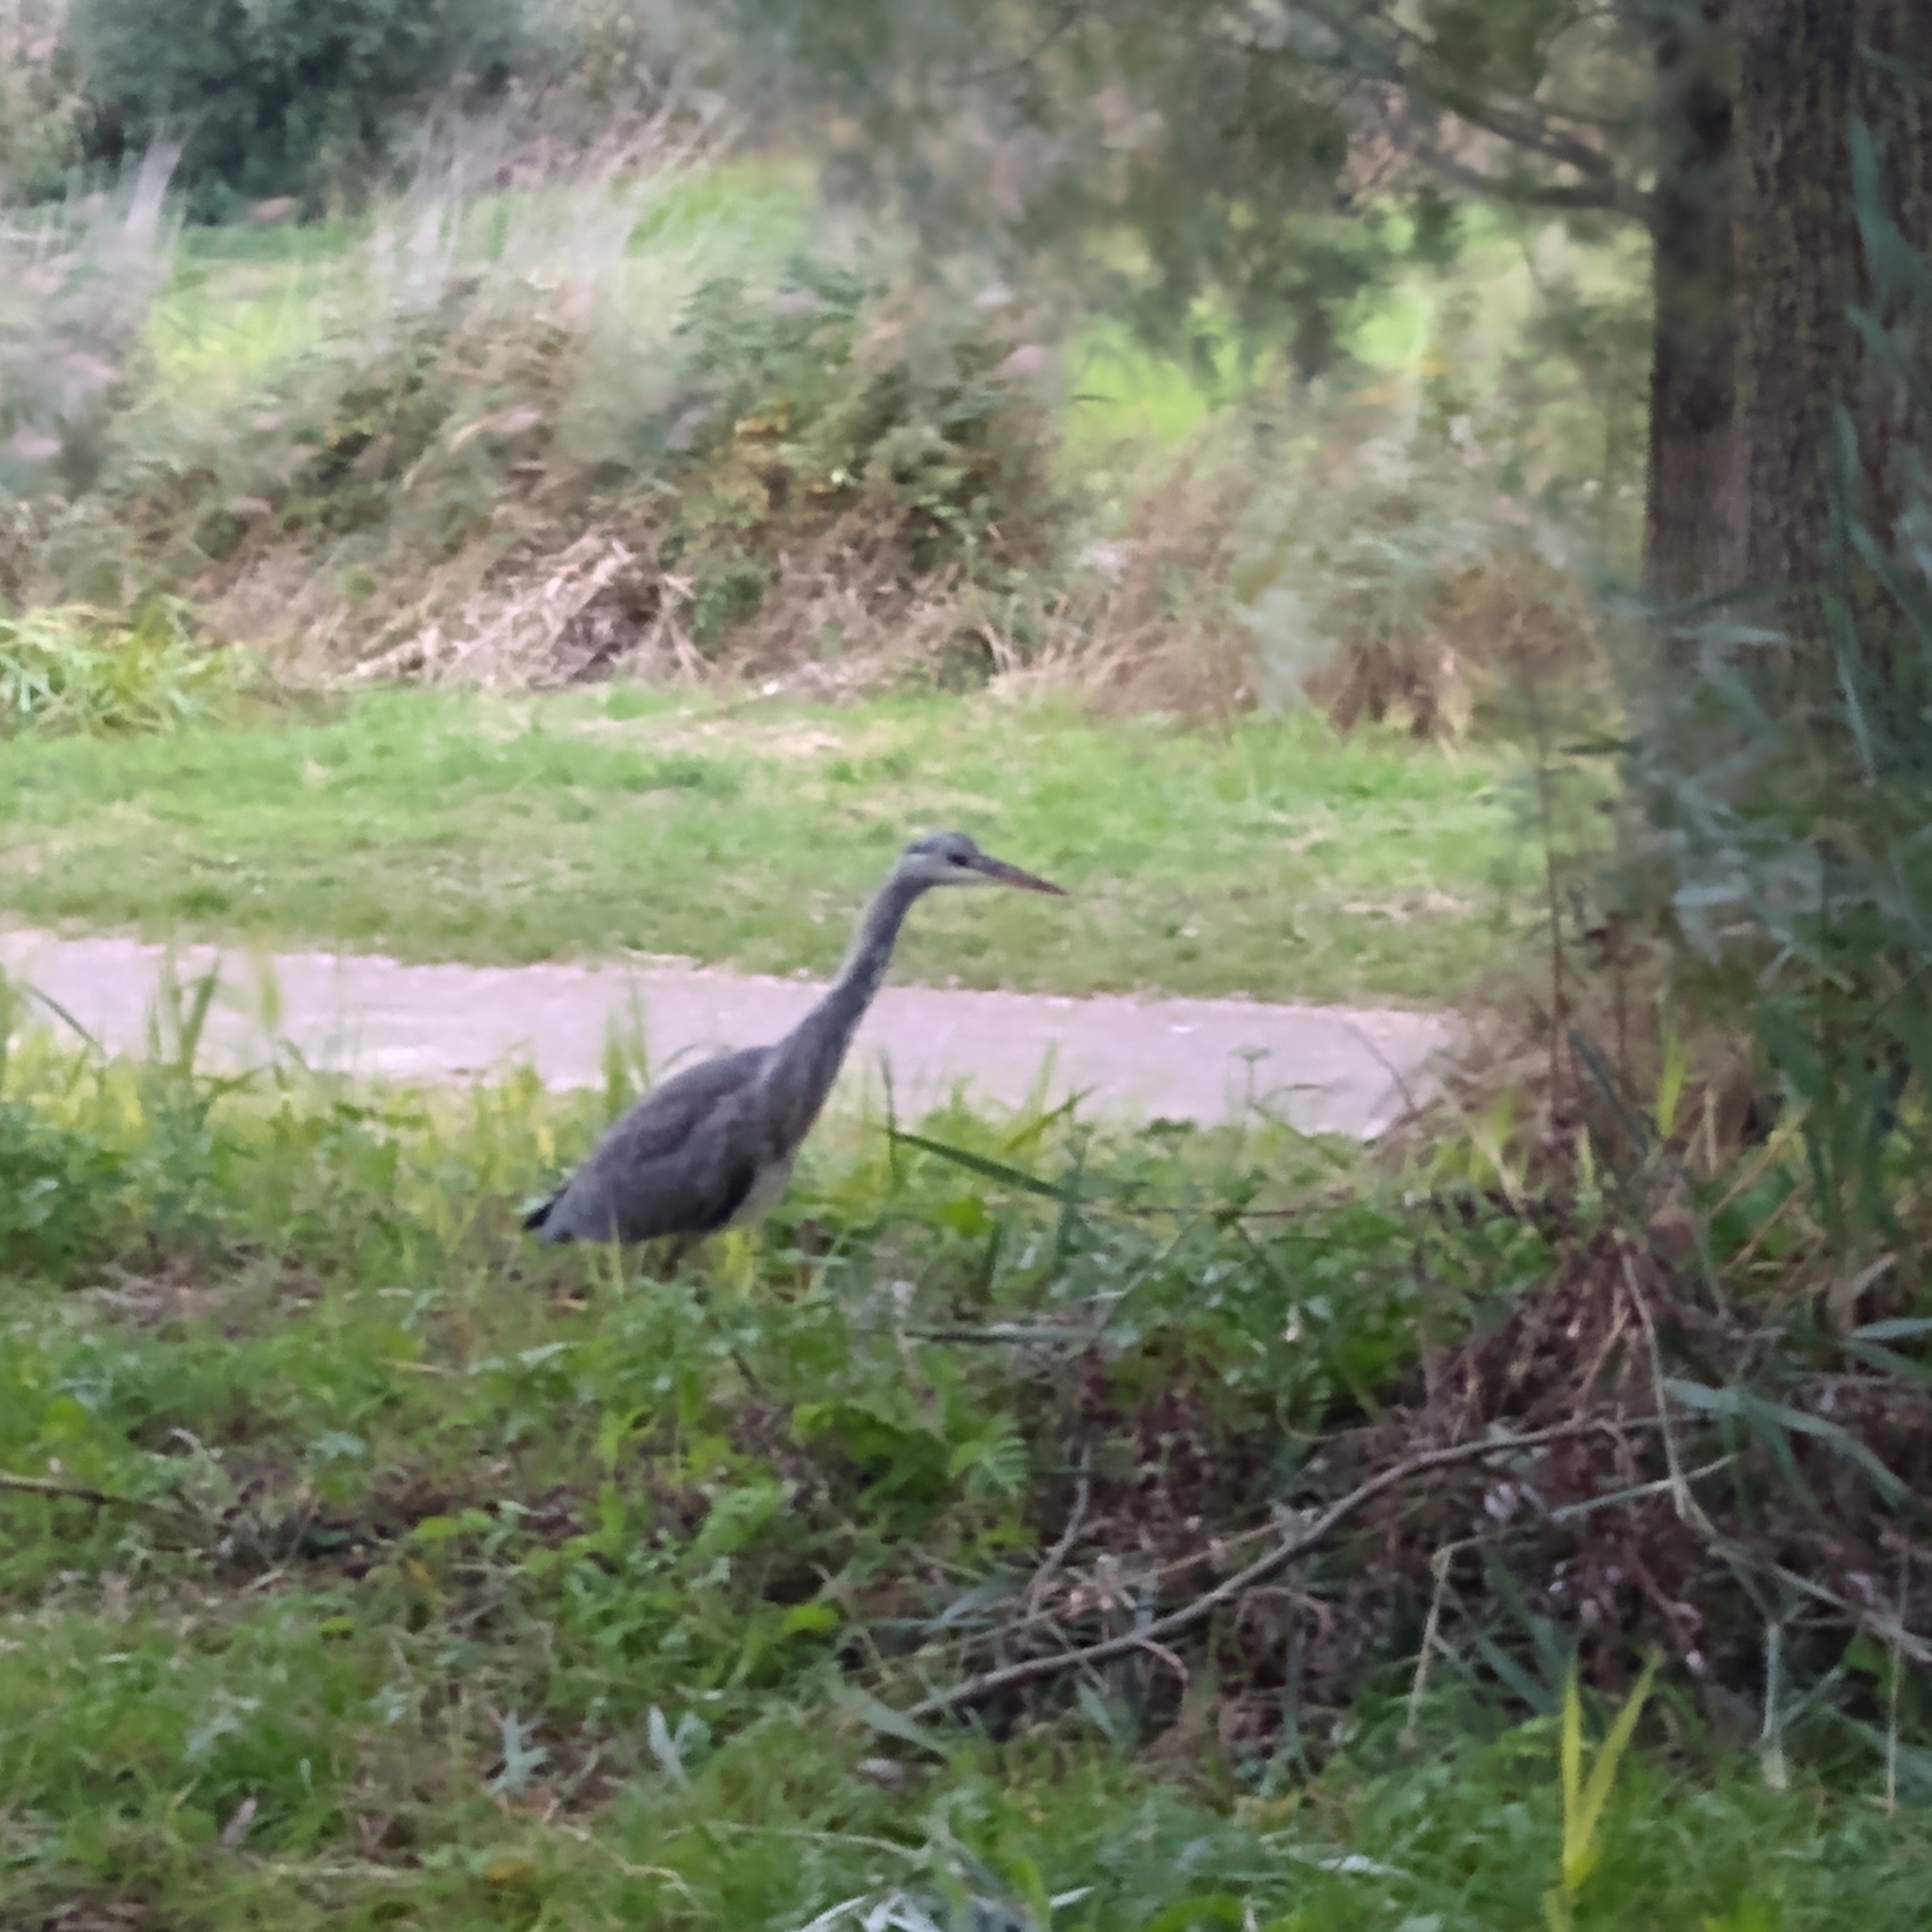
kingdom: Animalia
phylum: Chordata
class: Aves
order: Pelecaniformes
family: Ardeidae
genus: Ardea
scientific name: Ardea cinerea
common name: Grey heron
